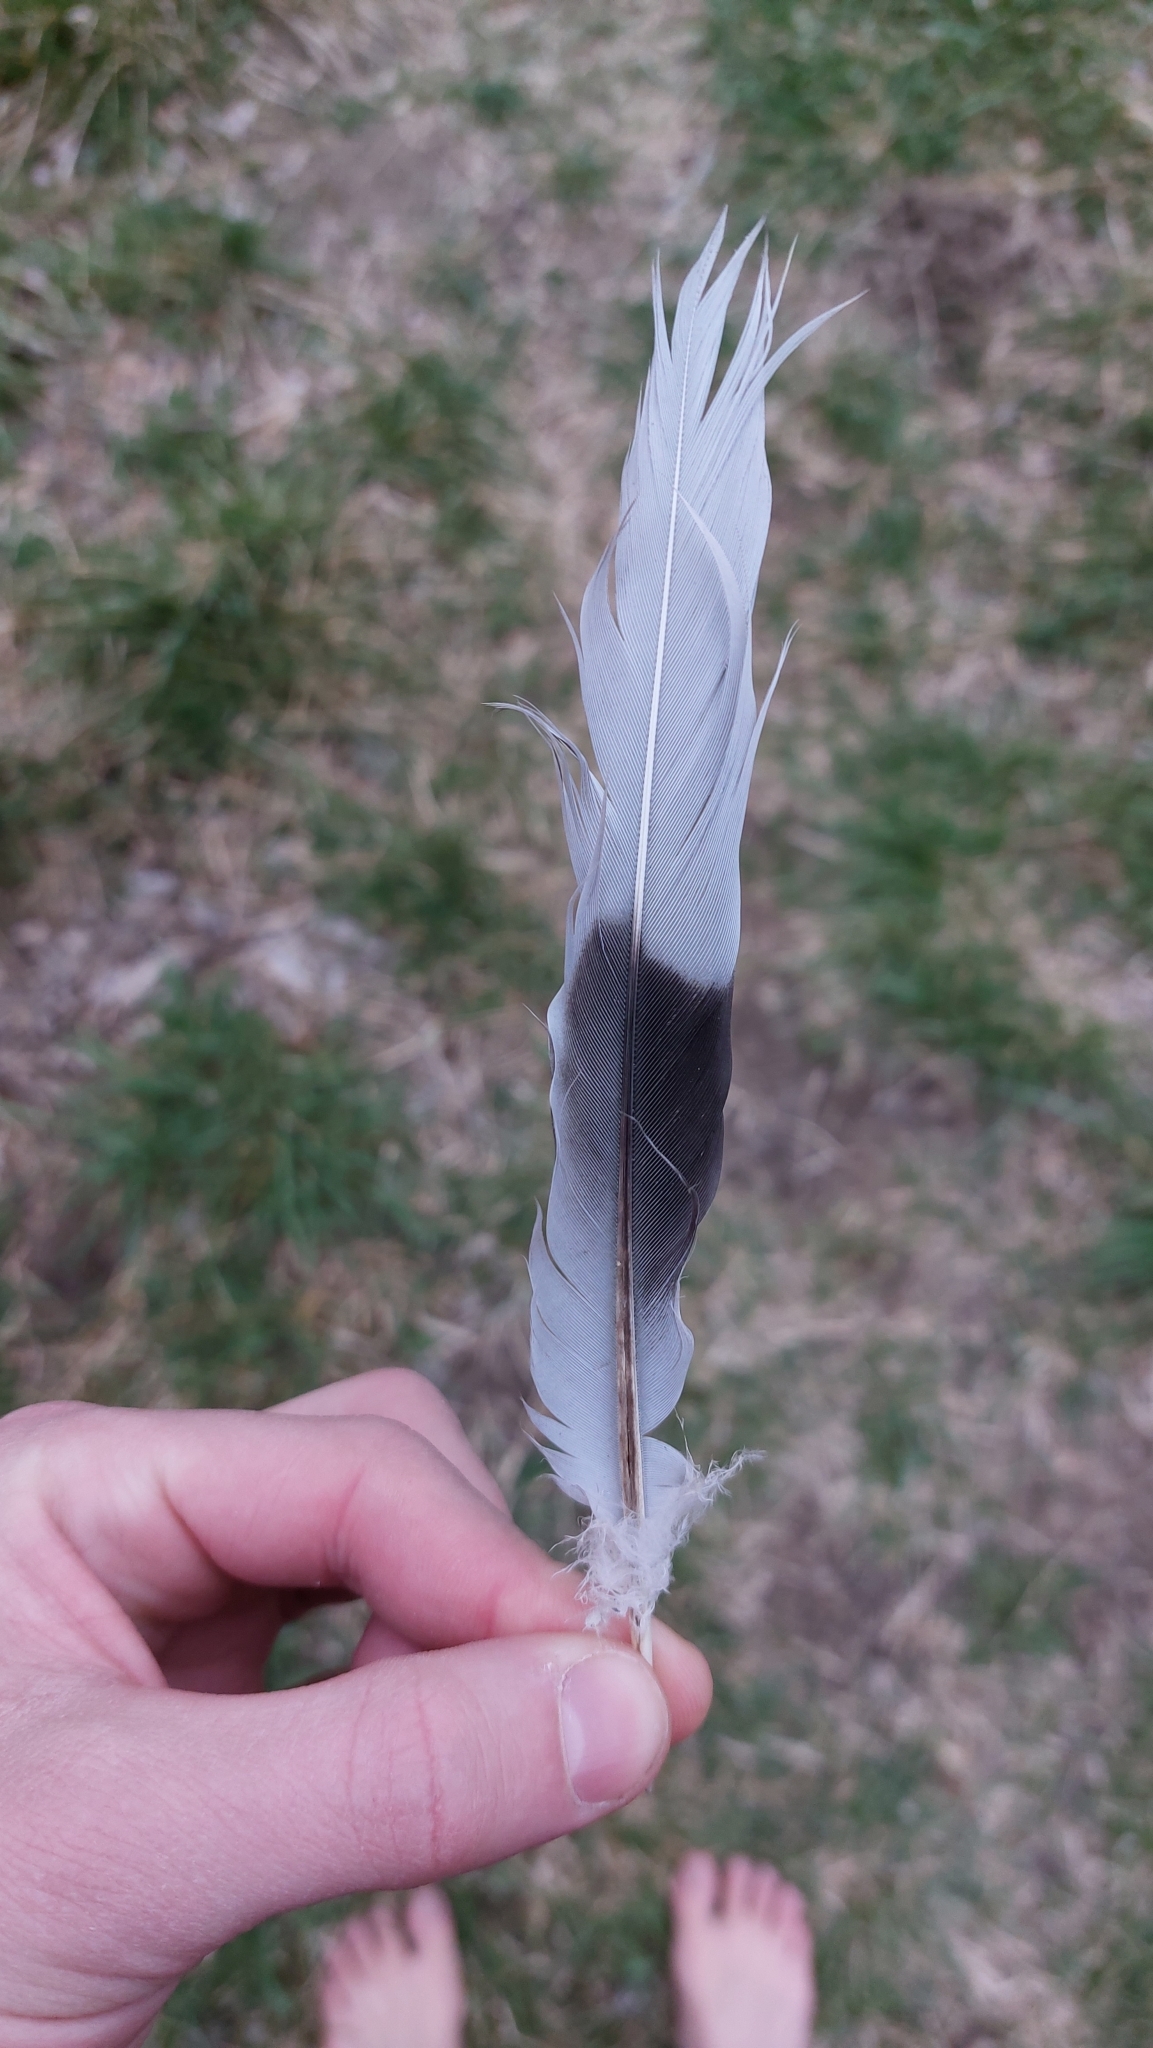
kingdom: Animalia
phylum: Chordata
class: Aves
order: Columbiformes
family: Columbidae
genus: Streptopelia
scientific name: Streptopelia decaocto
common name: Eurasian collared dove
